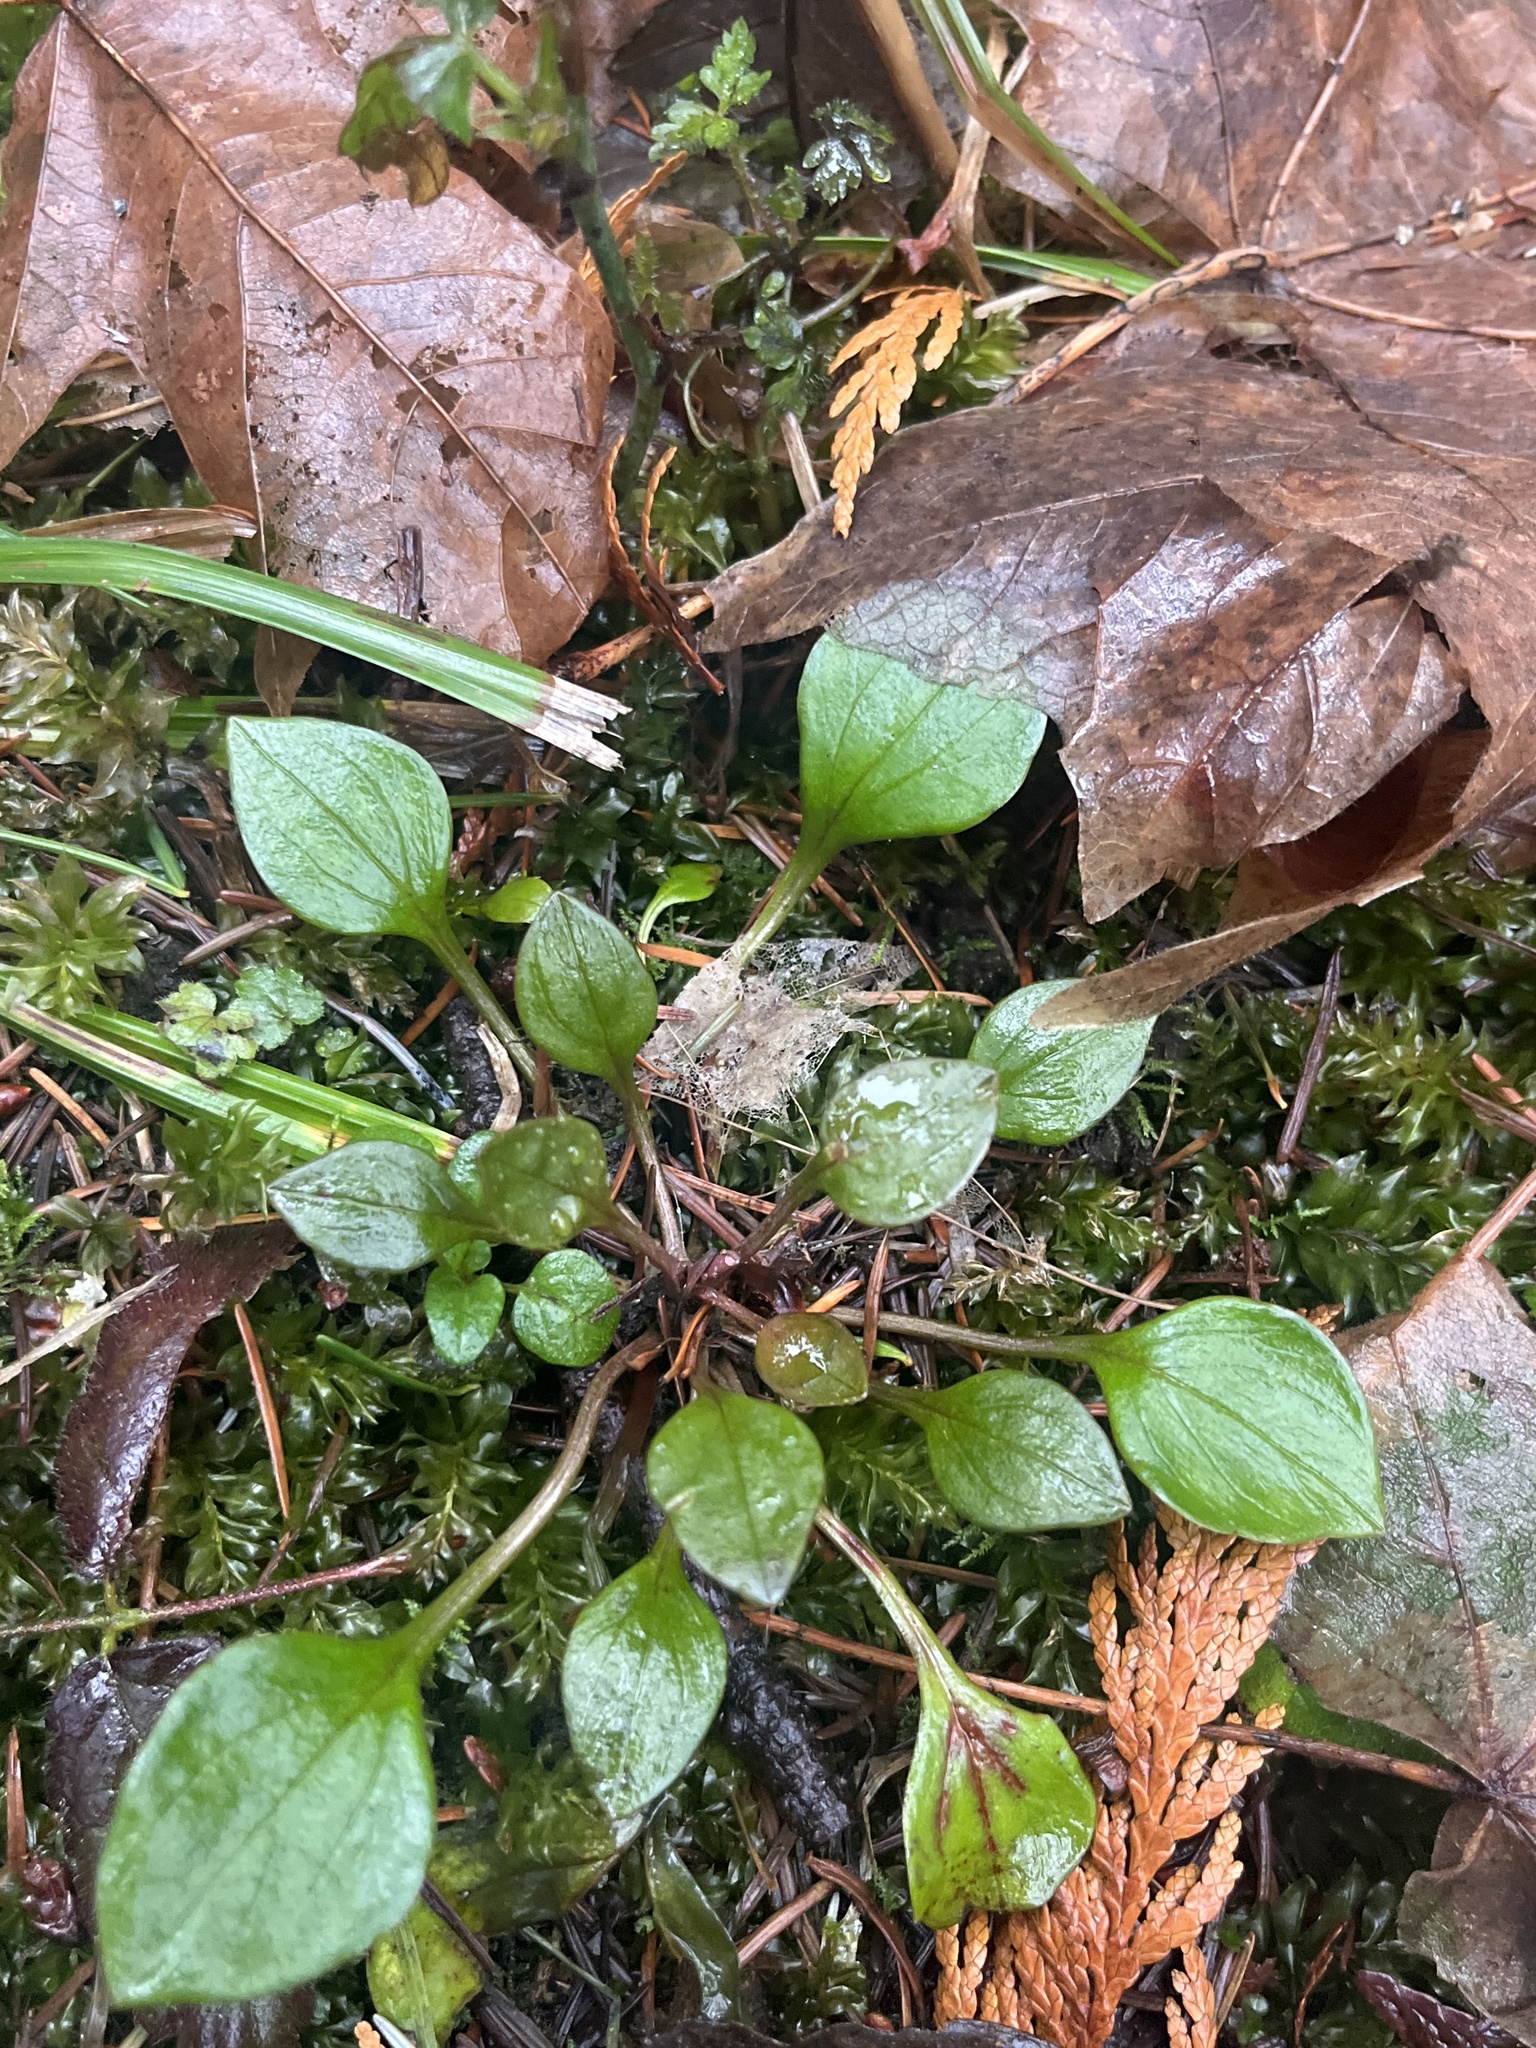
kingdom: Plantae
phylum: Tracheophyta
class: Magnoliopsida
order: Caryophyllales
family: Montiaceae
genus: Claytonia
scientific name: Claytonia sibirica
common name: Pink purslane
